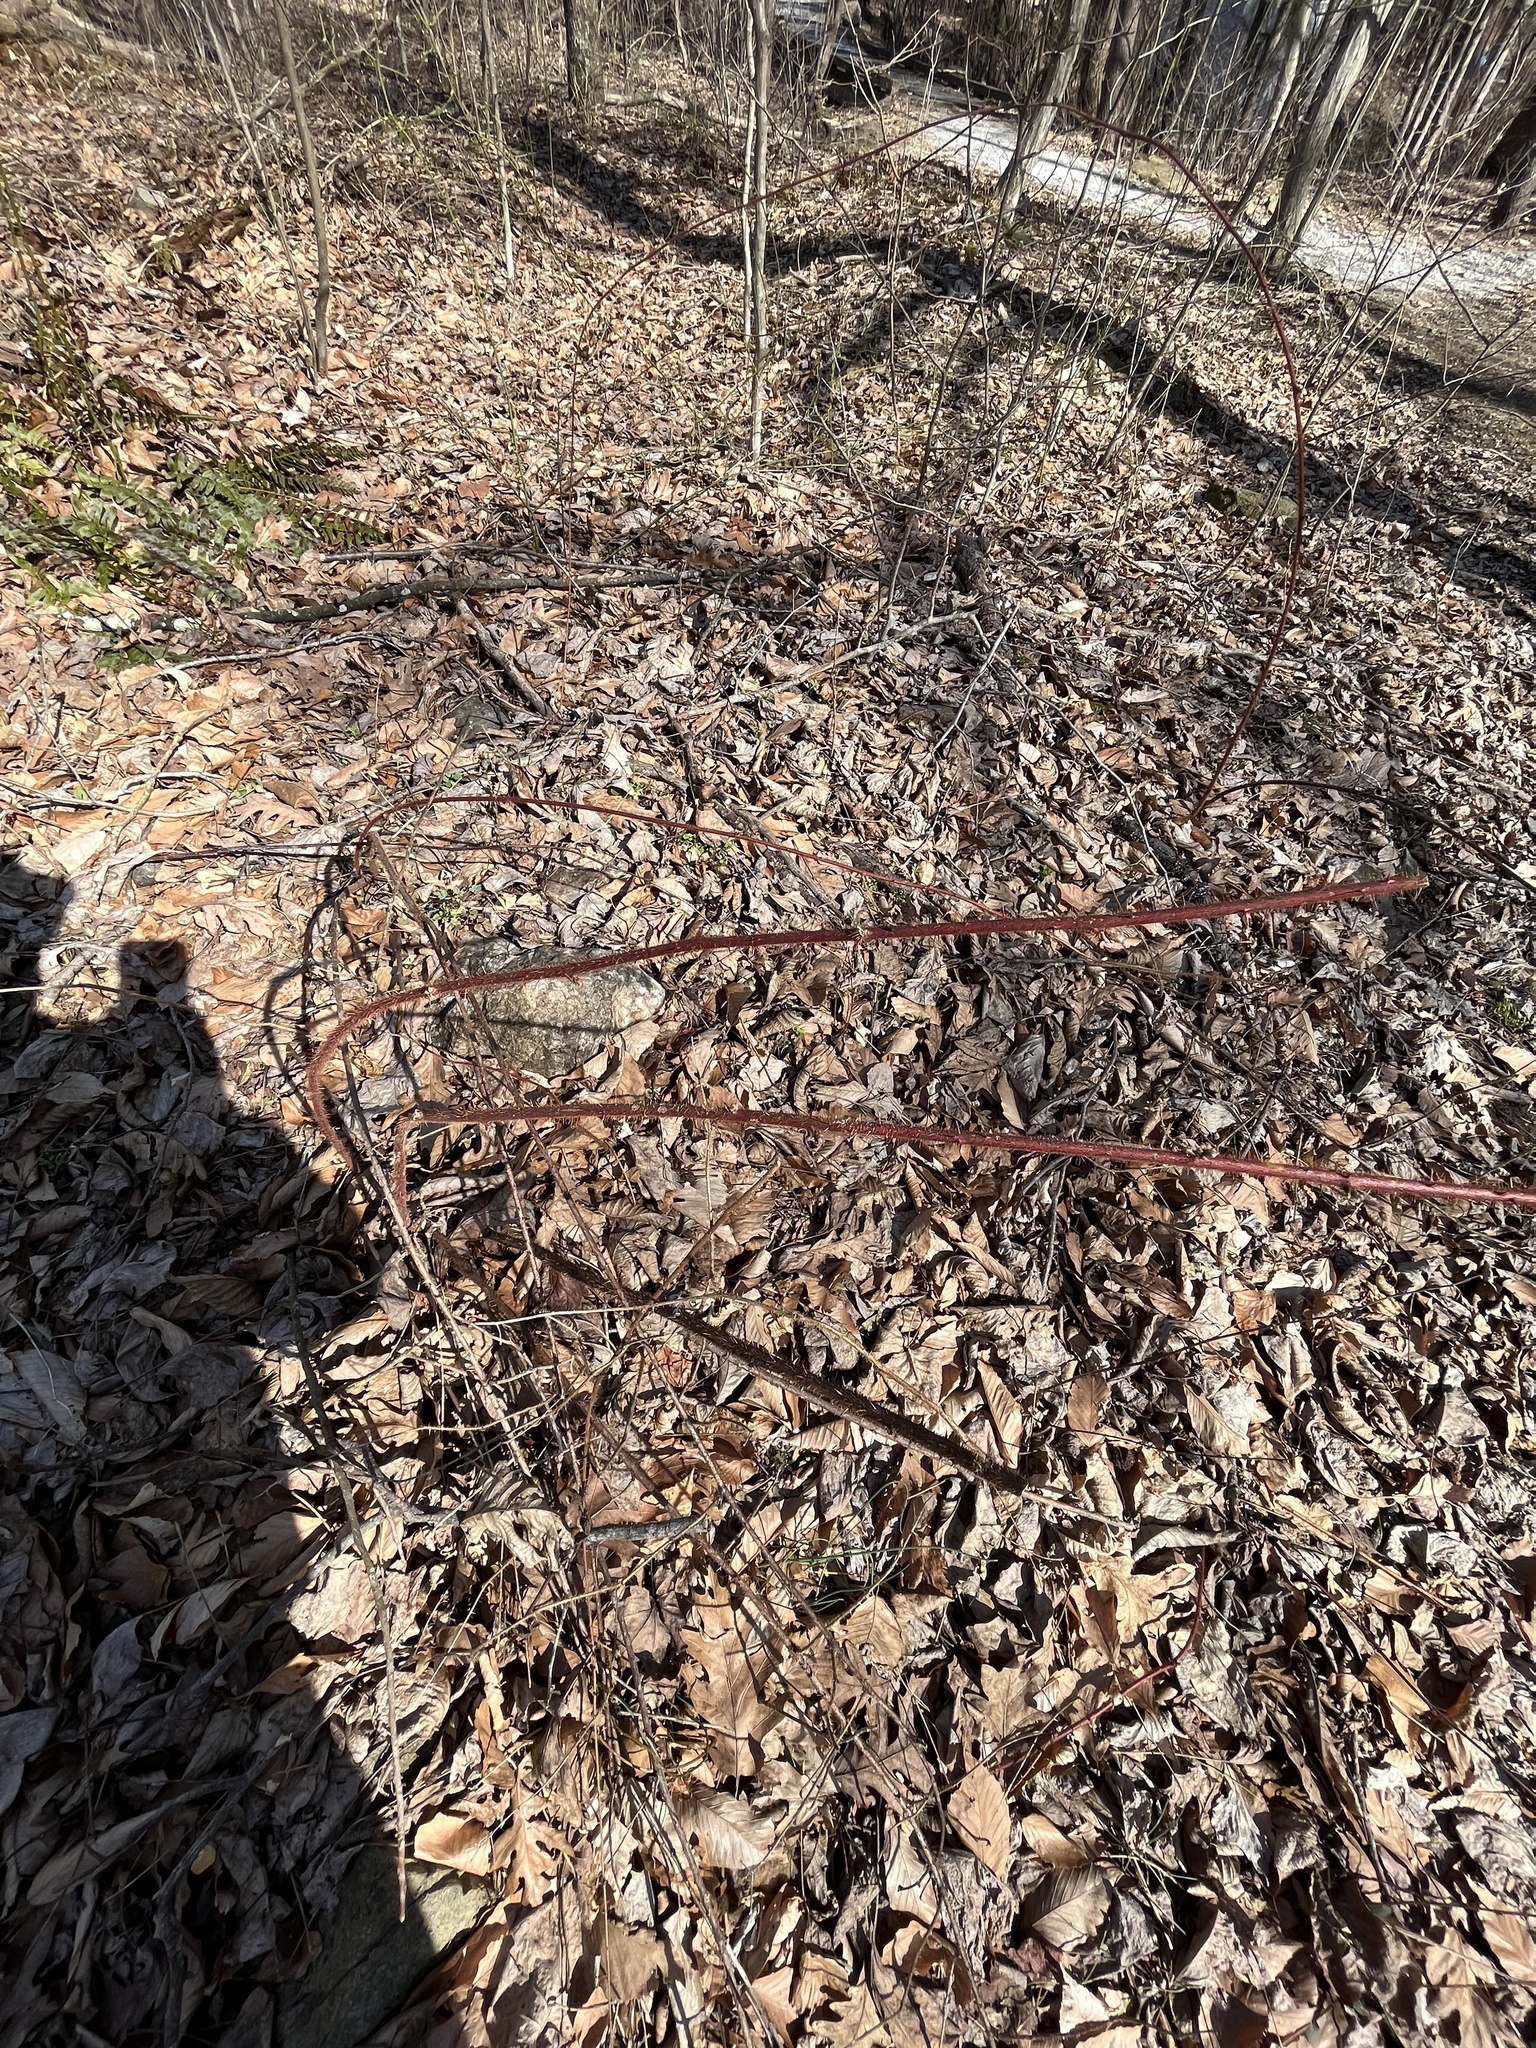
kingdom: Plantae
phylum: Tracheophyta
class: Magnoliopsida
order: Rosales
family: Rosaceae
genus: Rubus
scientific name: Rubus phoenicolasius
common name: Japanese wineberry
